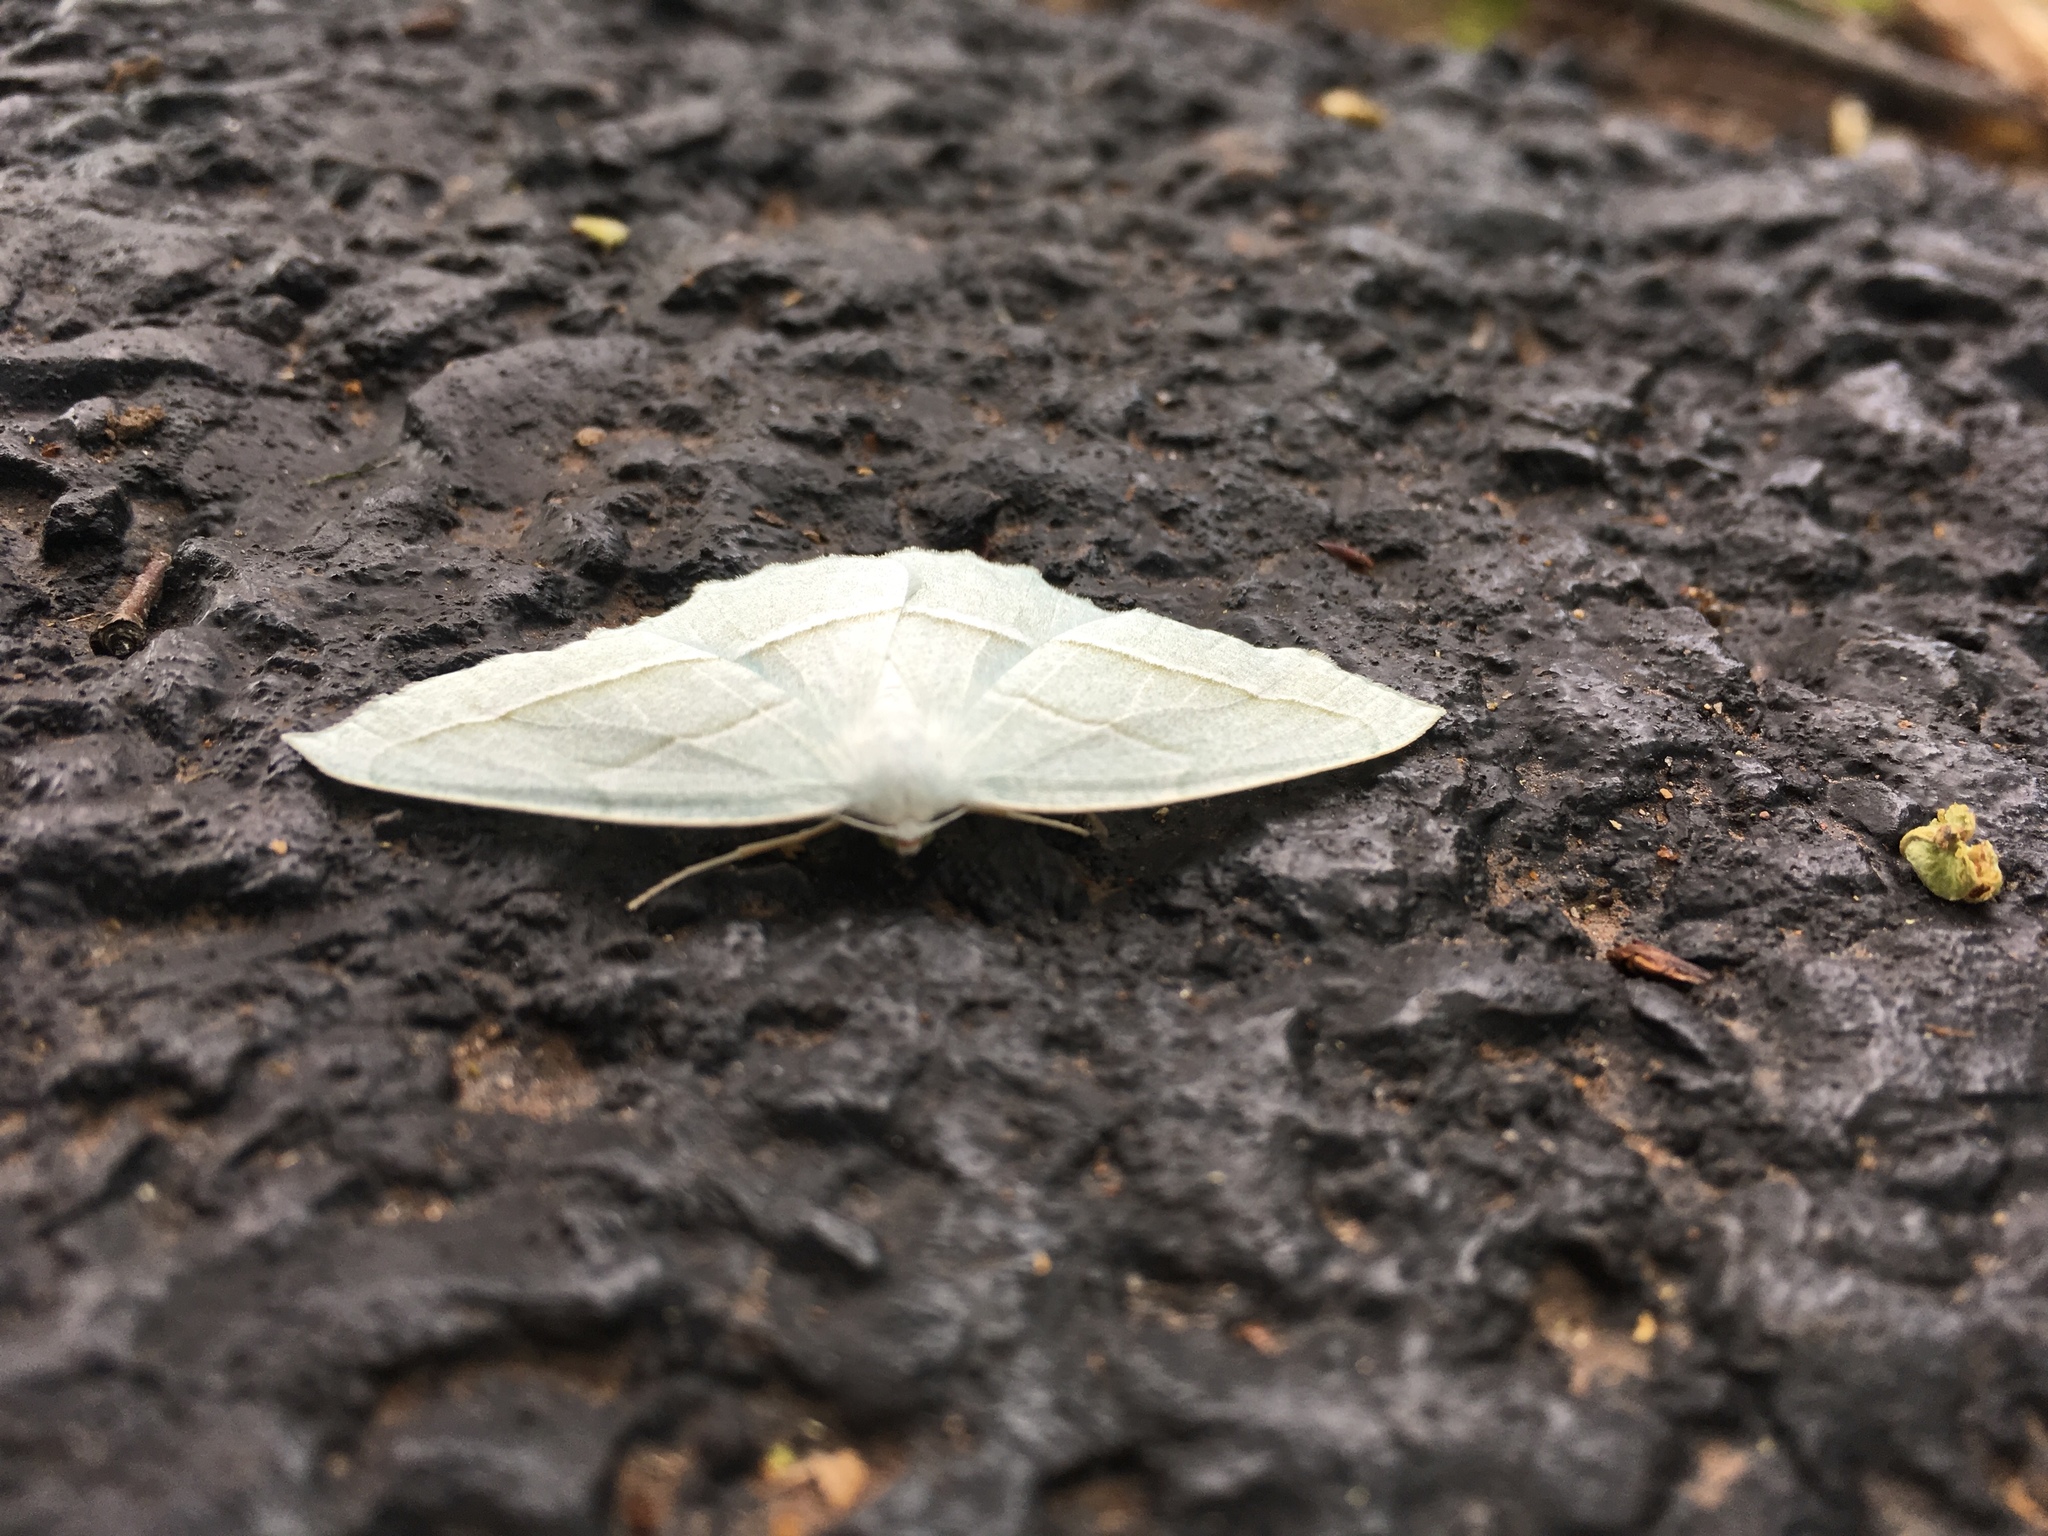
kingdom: Animalia
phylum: Arthropoda
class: Insecta
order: Lepidoptera
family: Geometridae
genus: Campaea
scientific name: Campaea perlata
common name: Fringed looper
